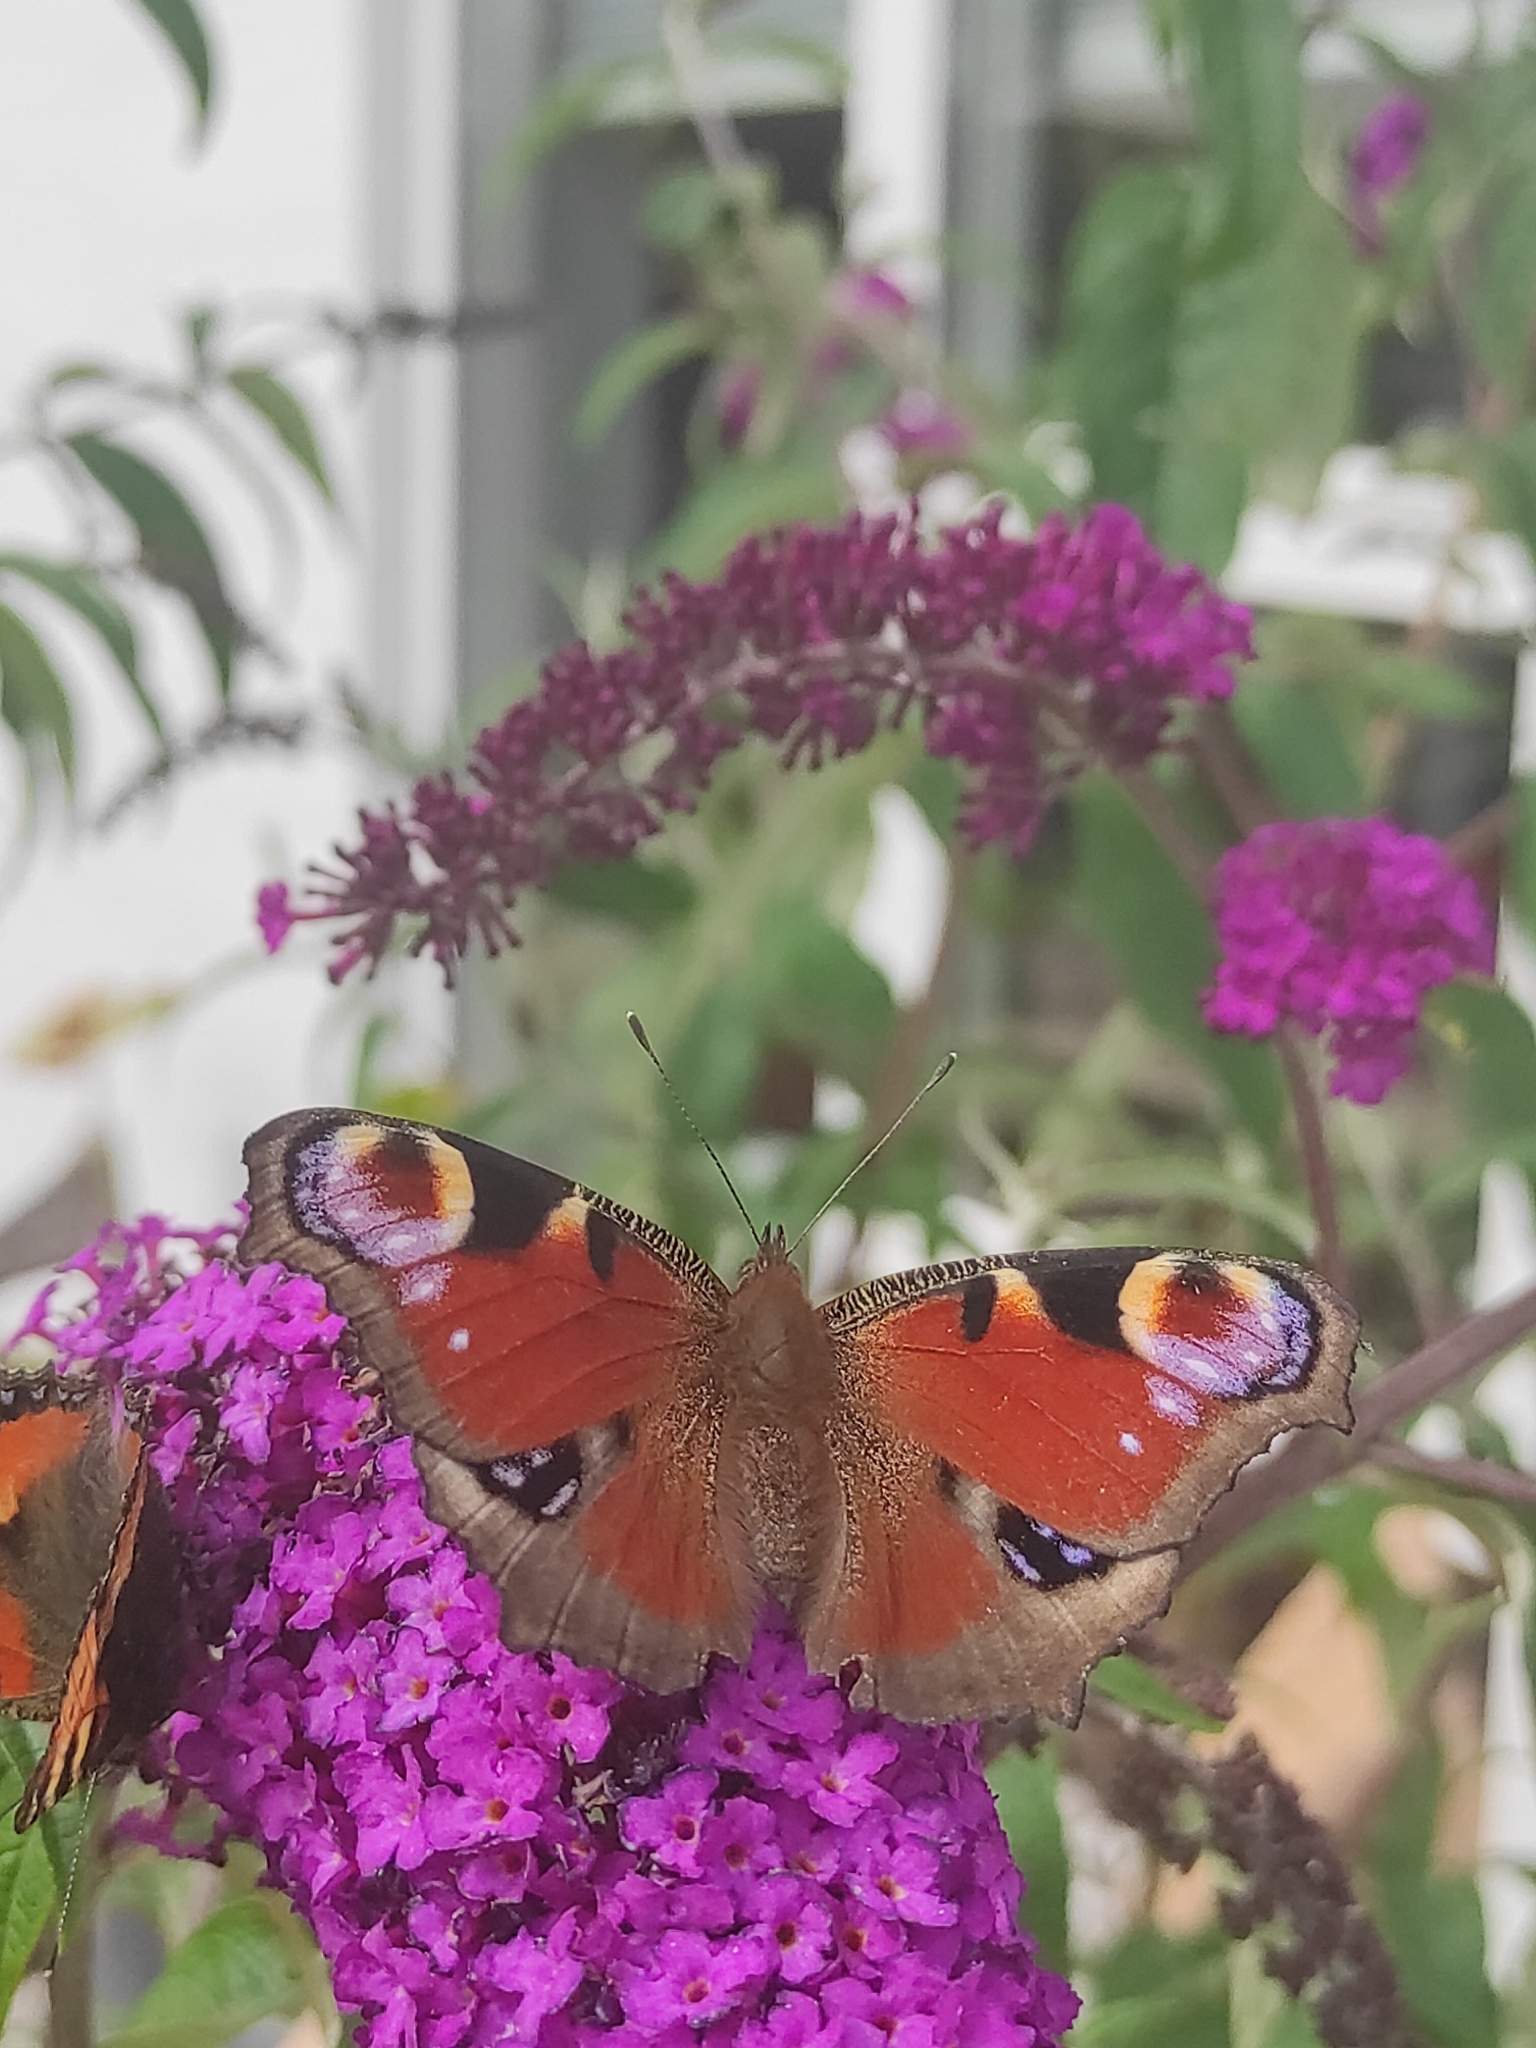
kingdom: Animalia
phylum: Arthropoda
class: Insecta
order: Lepidoptera
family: Nymphalidae
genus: Aglais
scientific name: Aglais io
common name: Peacock
